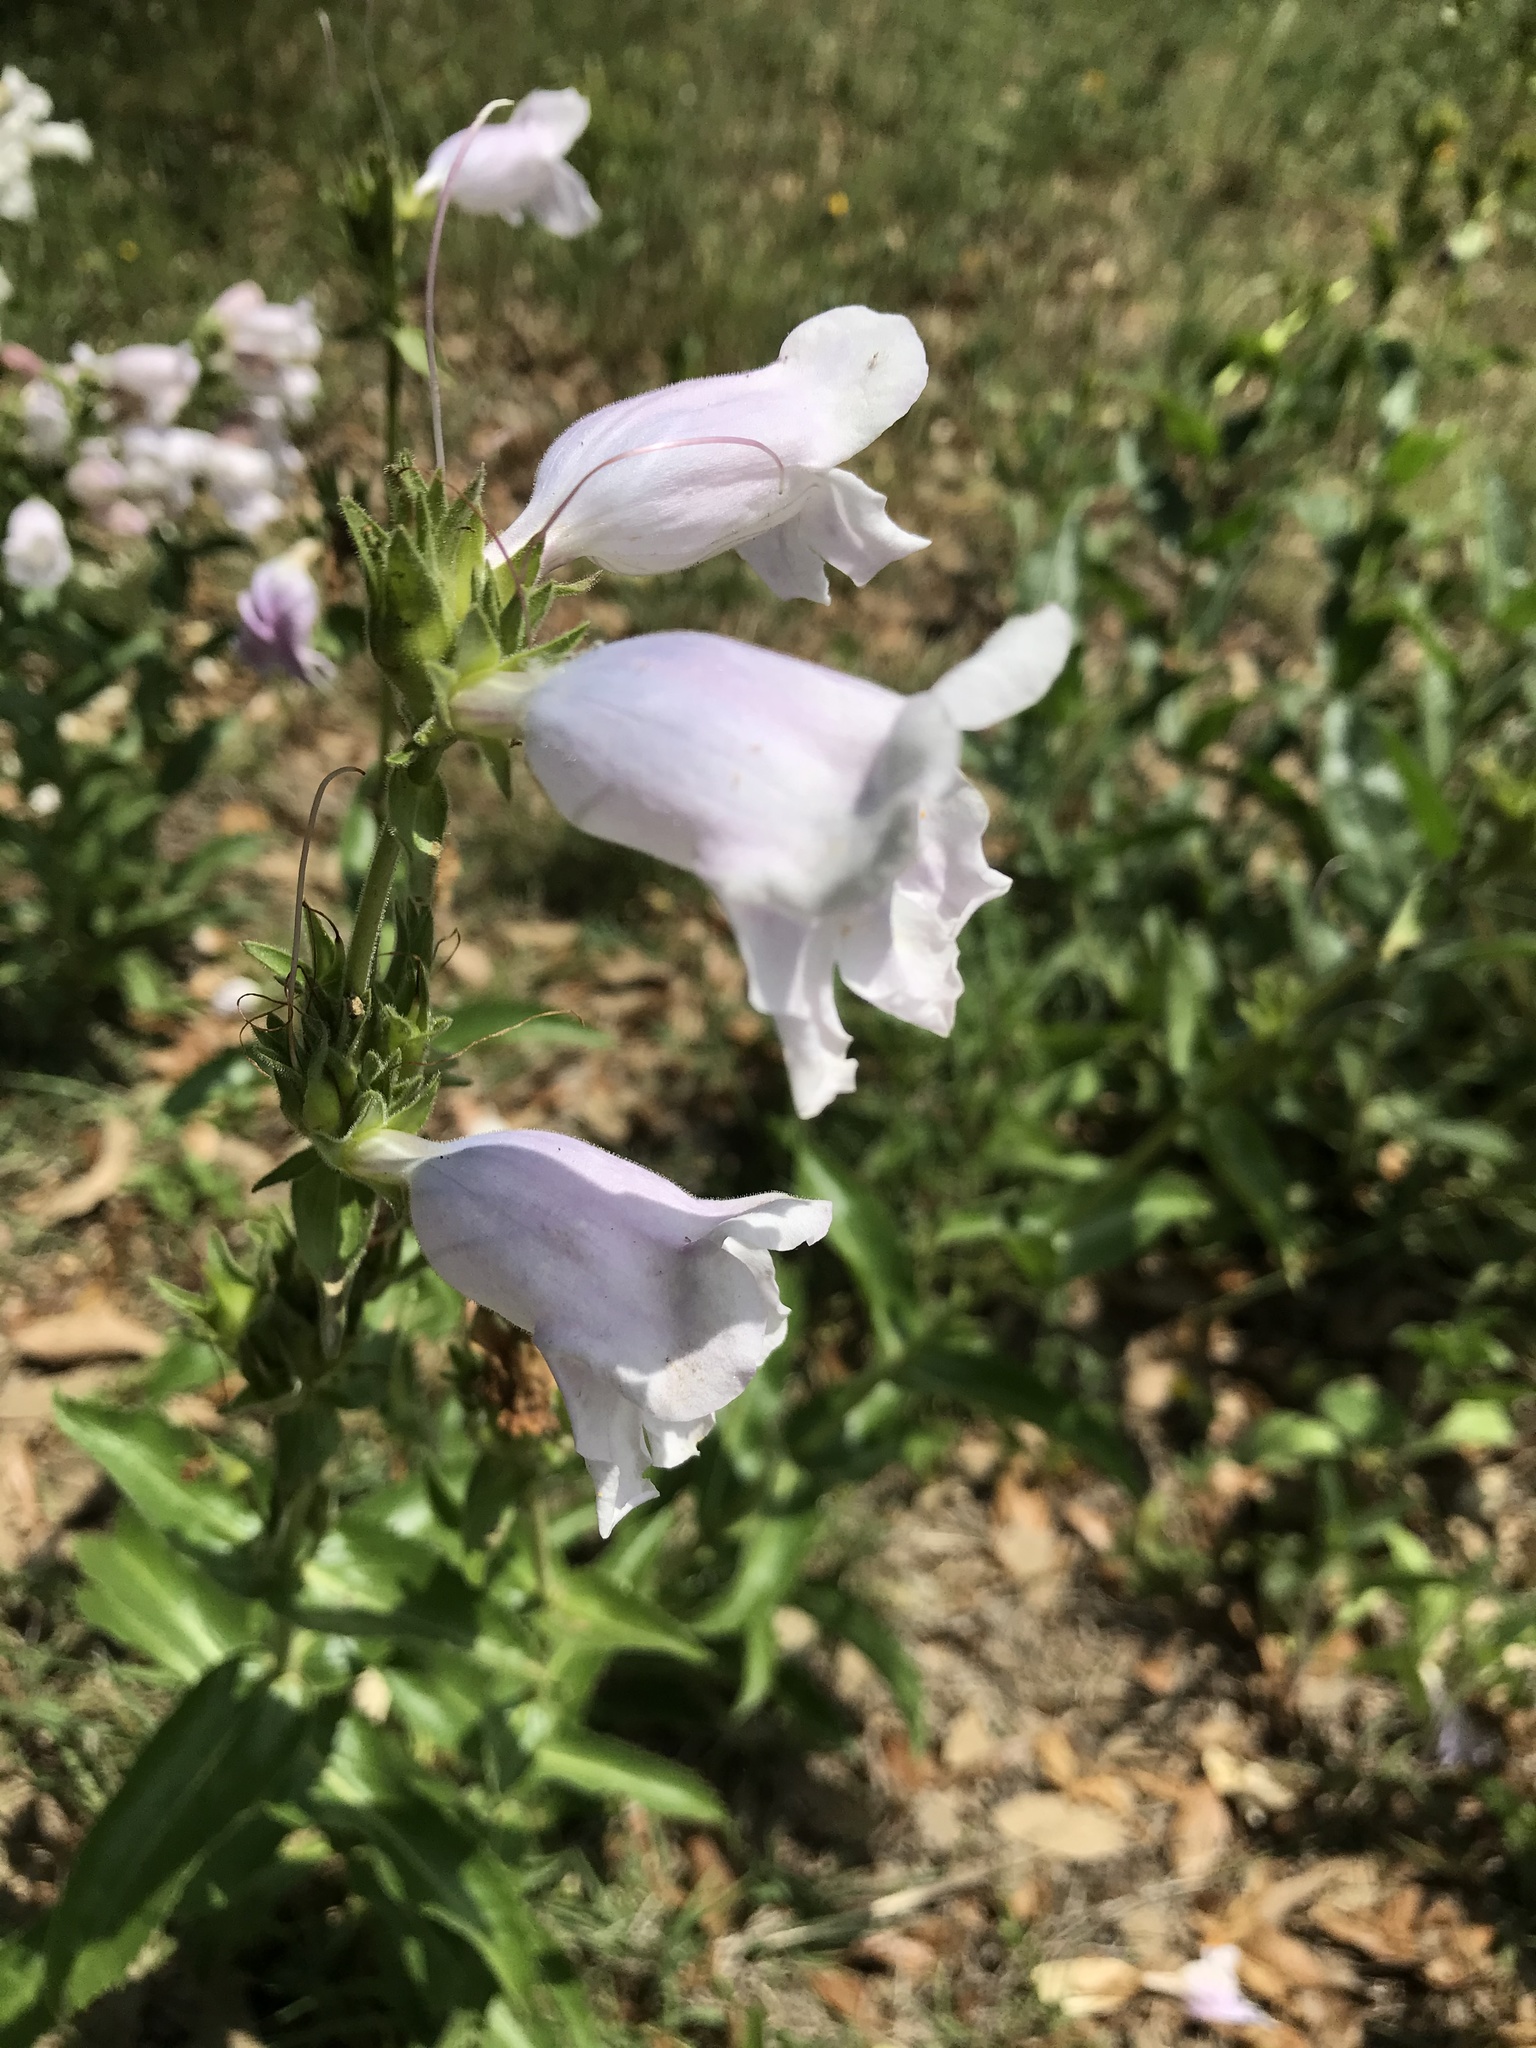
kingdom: Plantae
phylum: Tracheophyta
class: Magnoliopsida
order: Lamiales
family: Plantaginaceae
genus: Penstemon
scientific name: Penstemon cobaea
